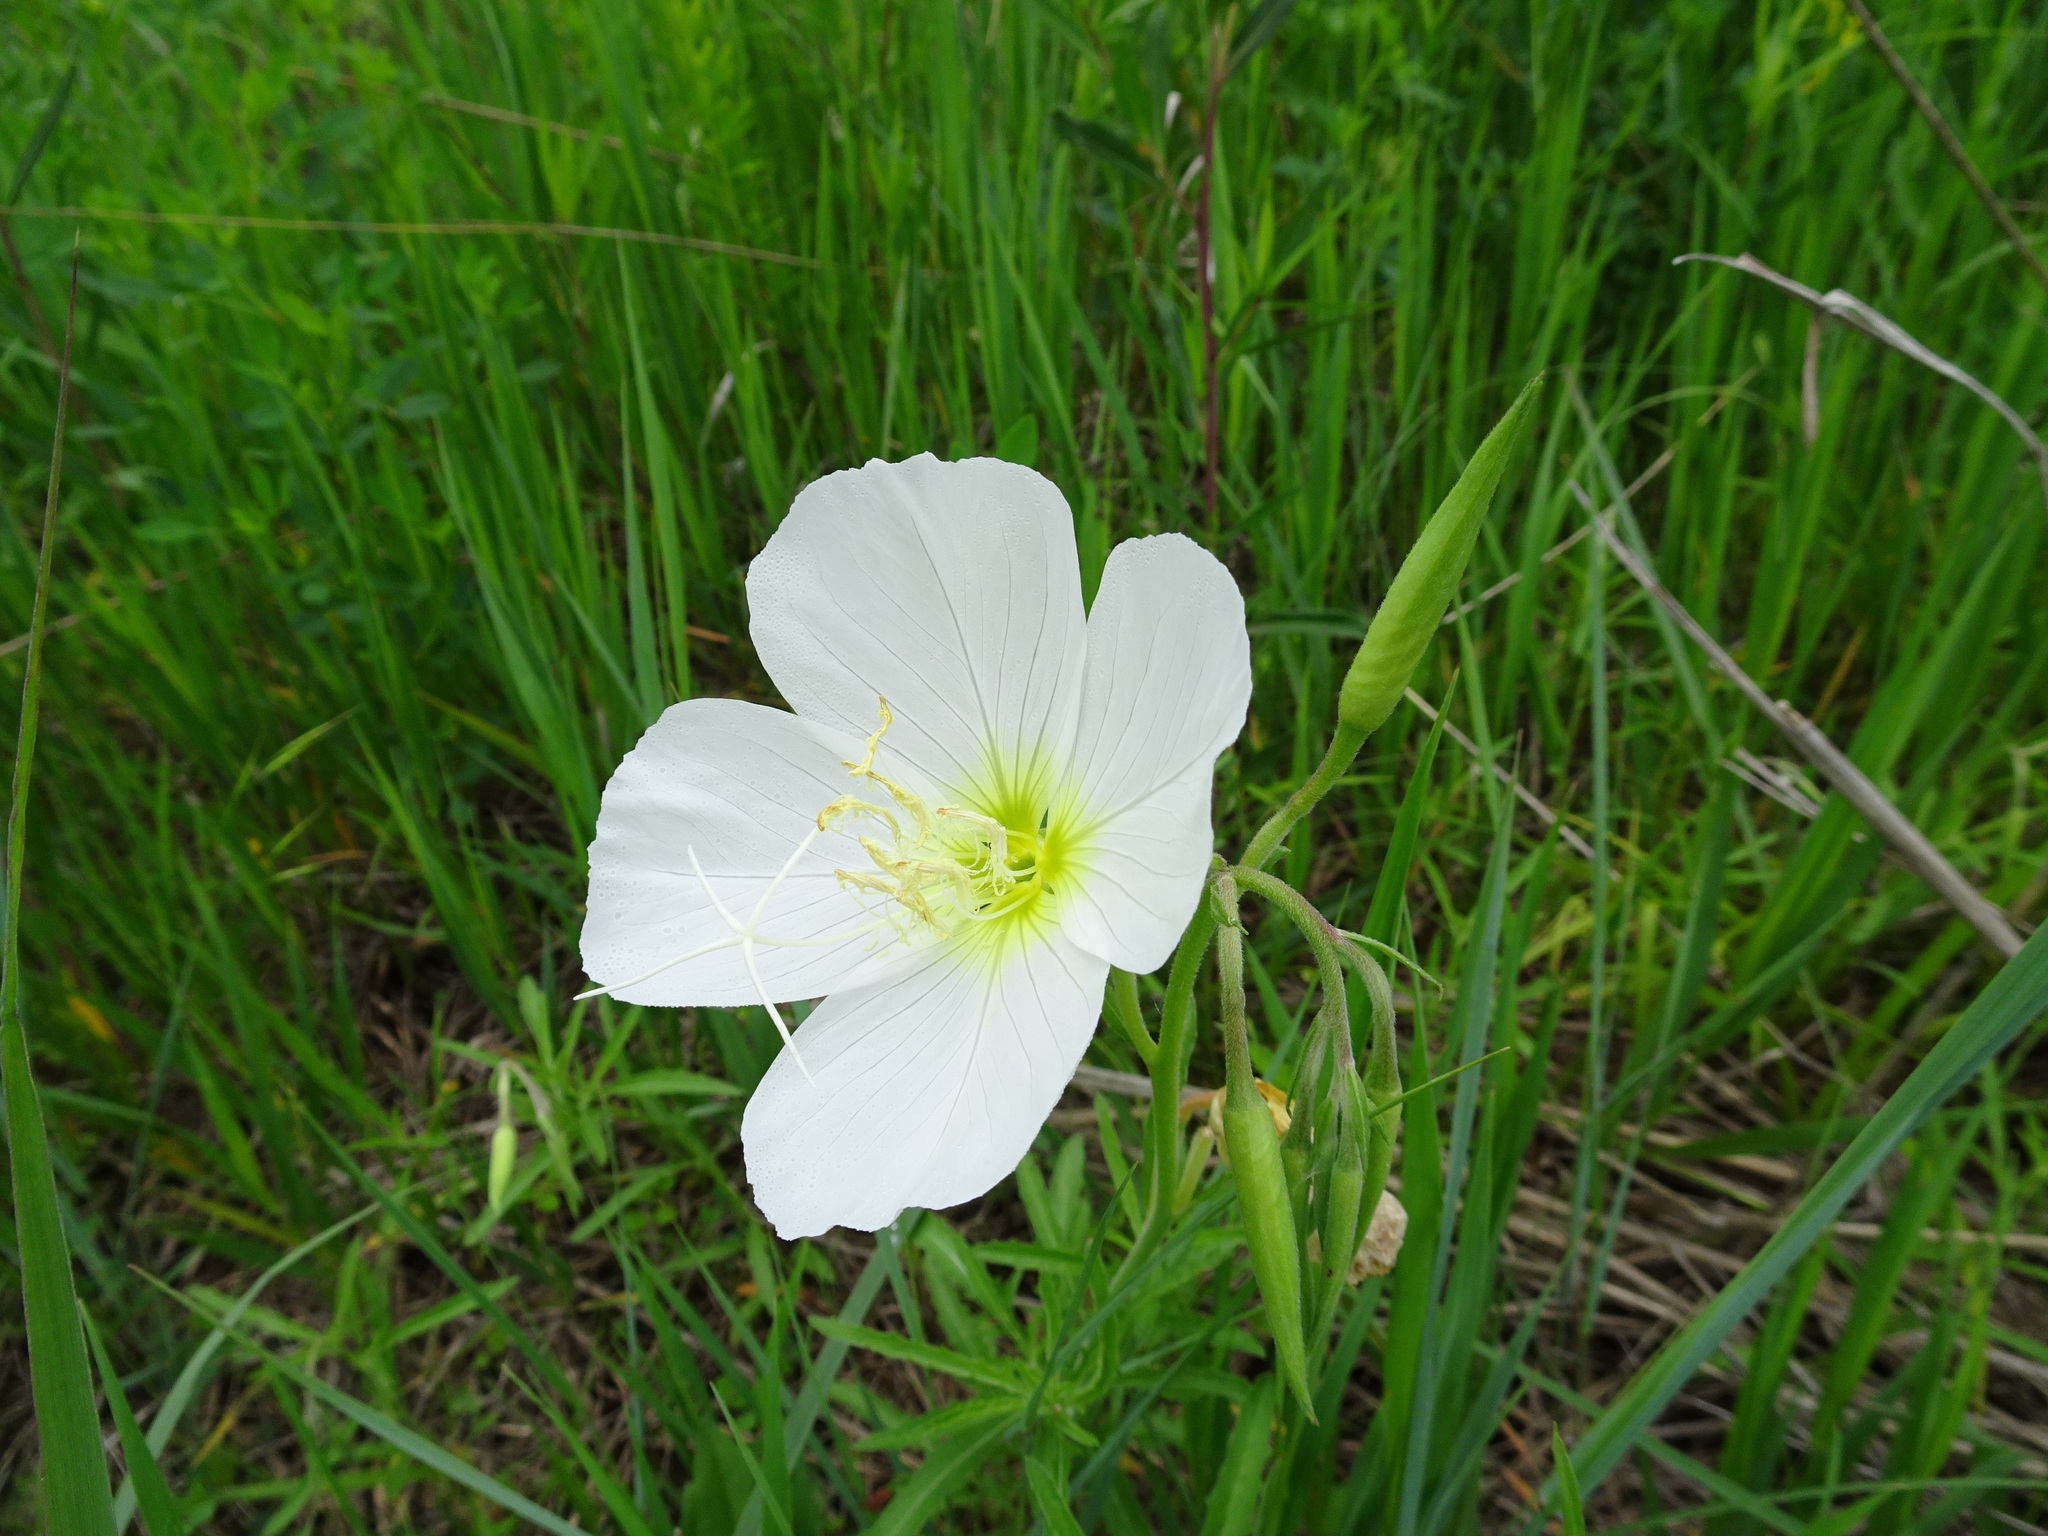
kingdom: Plantae
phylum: Tracheophyta
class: Magnoliopsida
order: Myrtales
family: Onagraceae
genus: Oenothera
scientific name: Oenothera speciosa
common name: White evening-primrose
